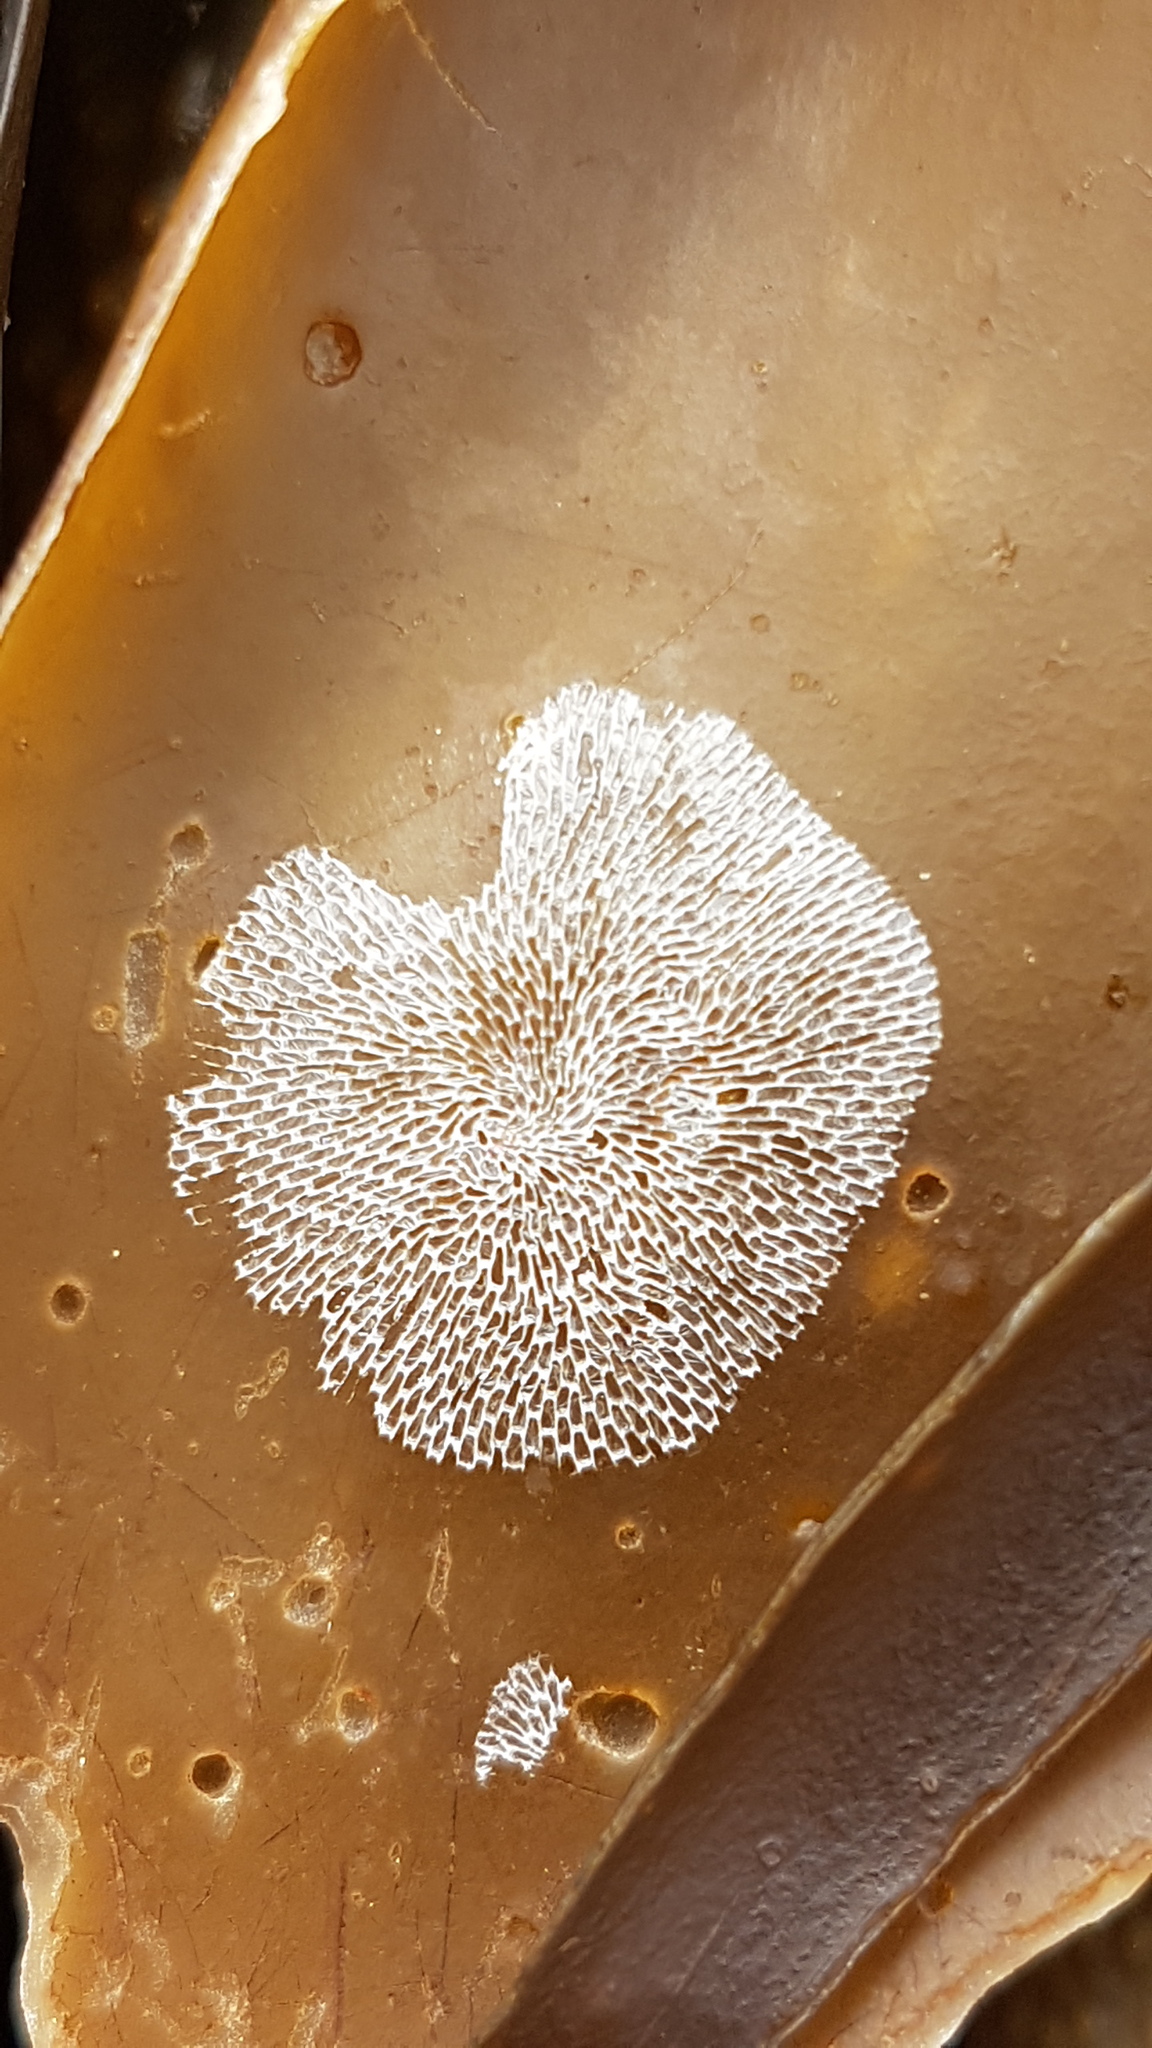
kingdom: Animalia
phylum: Bryozoa
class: Gymnolaemata
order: Cheilostomatida
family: Membraniporidae
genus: Membranipora
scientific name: Membranipora membranacea
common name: Sea mat
